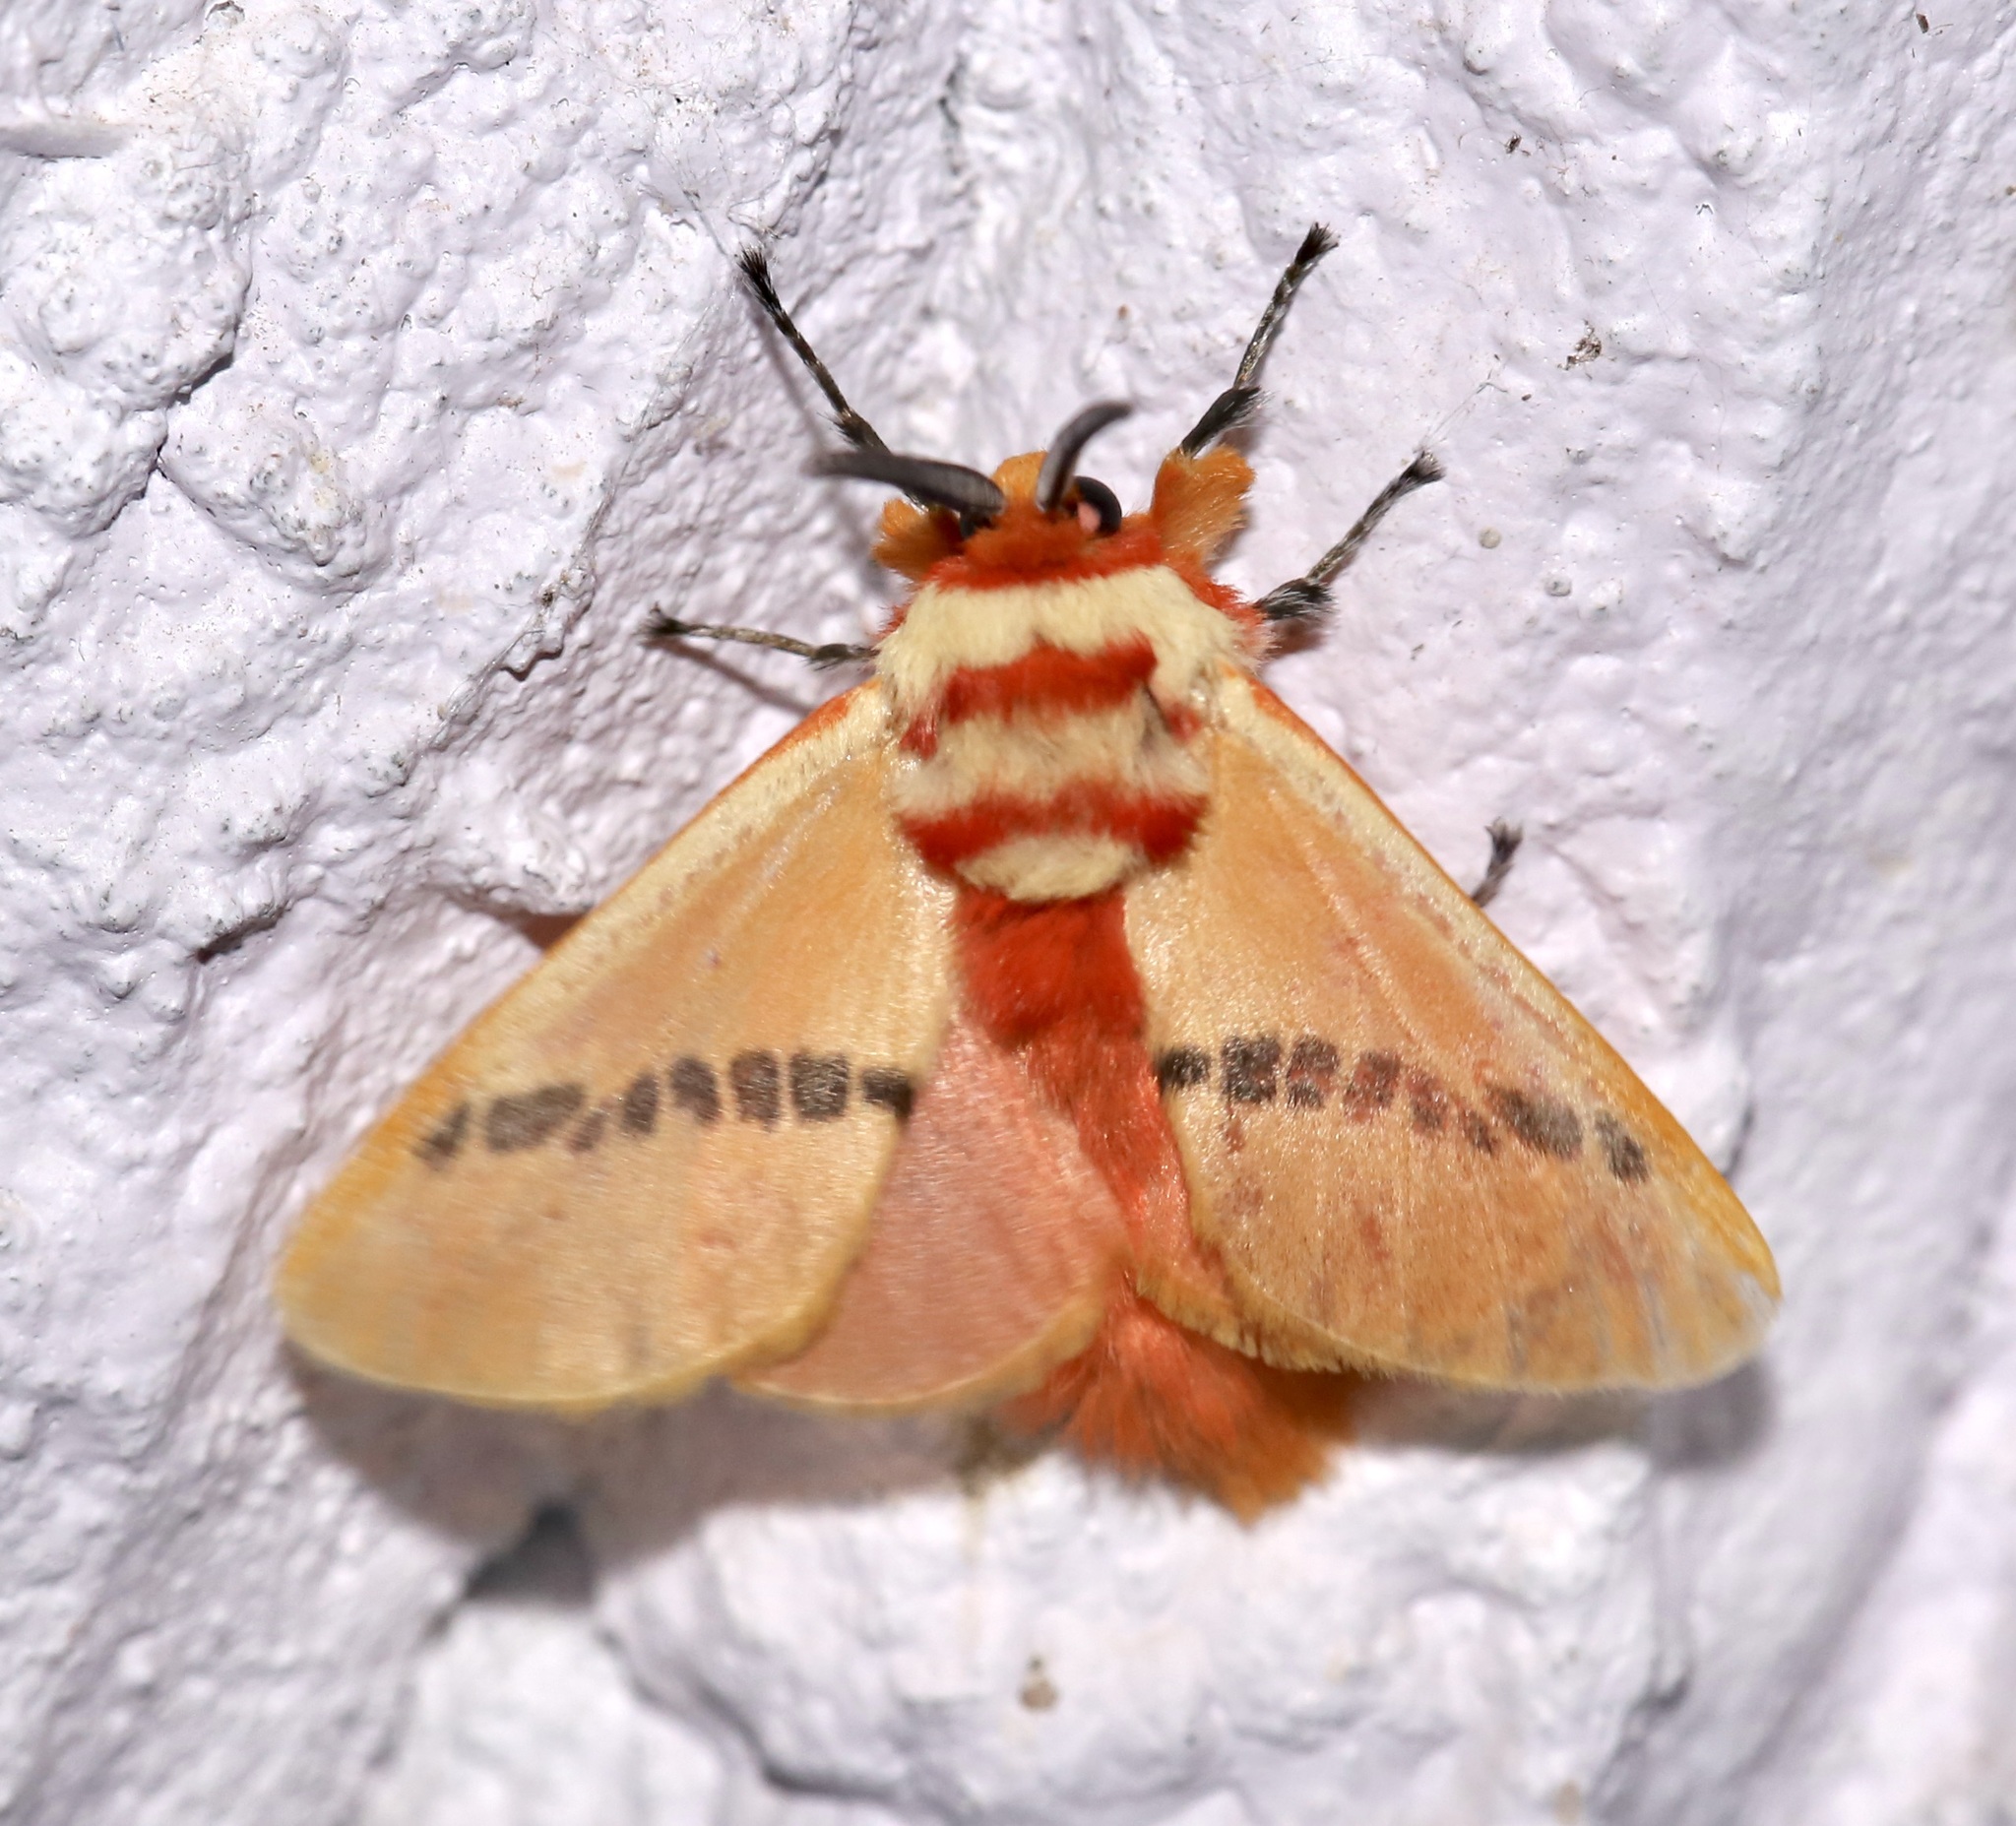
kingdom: Animalia
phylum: Arthropoda
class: Insecta
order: Lepidoptera
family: Megalopygidae
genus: Trosia
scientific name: Trosia tolimata
